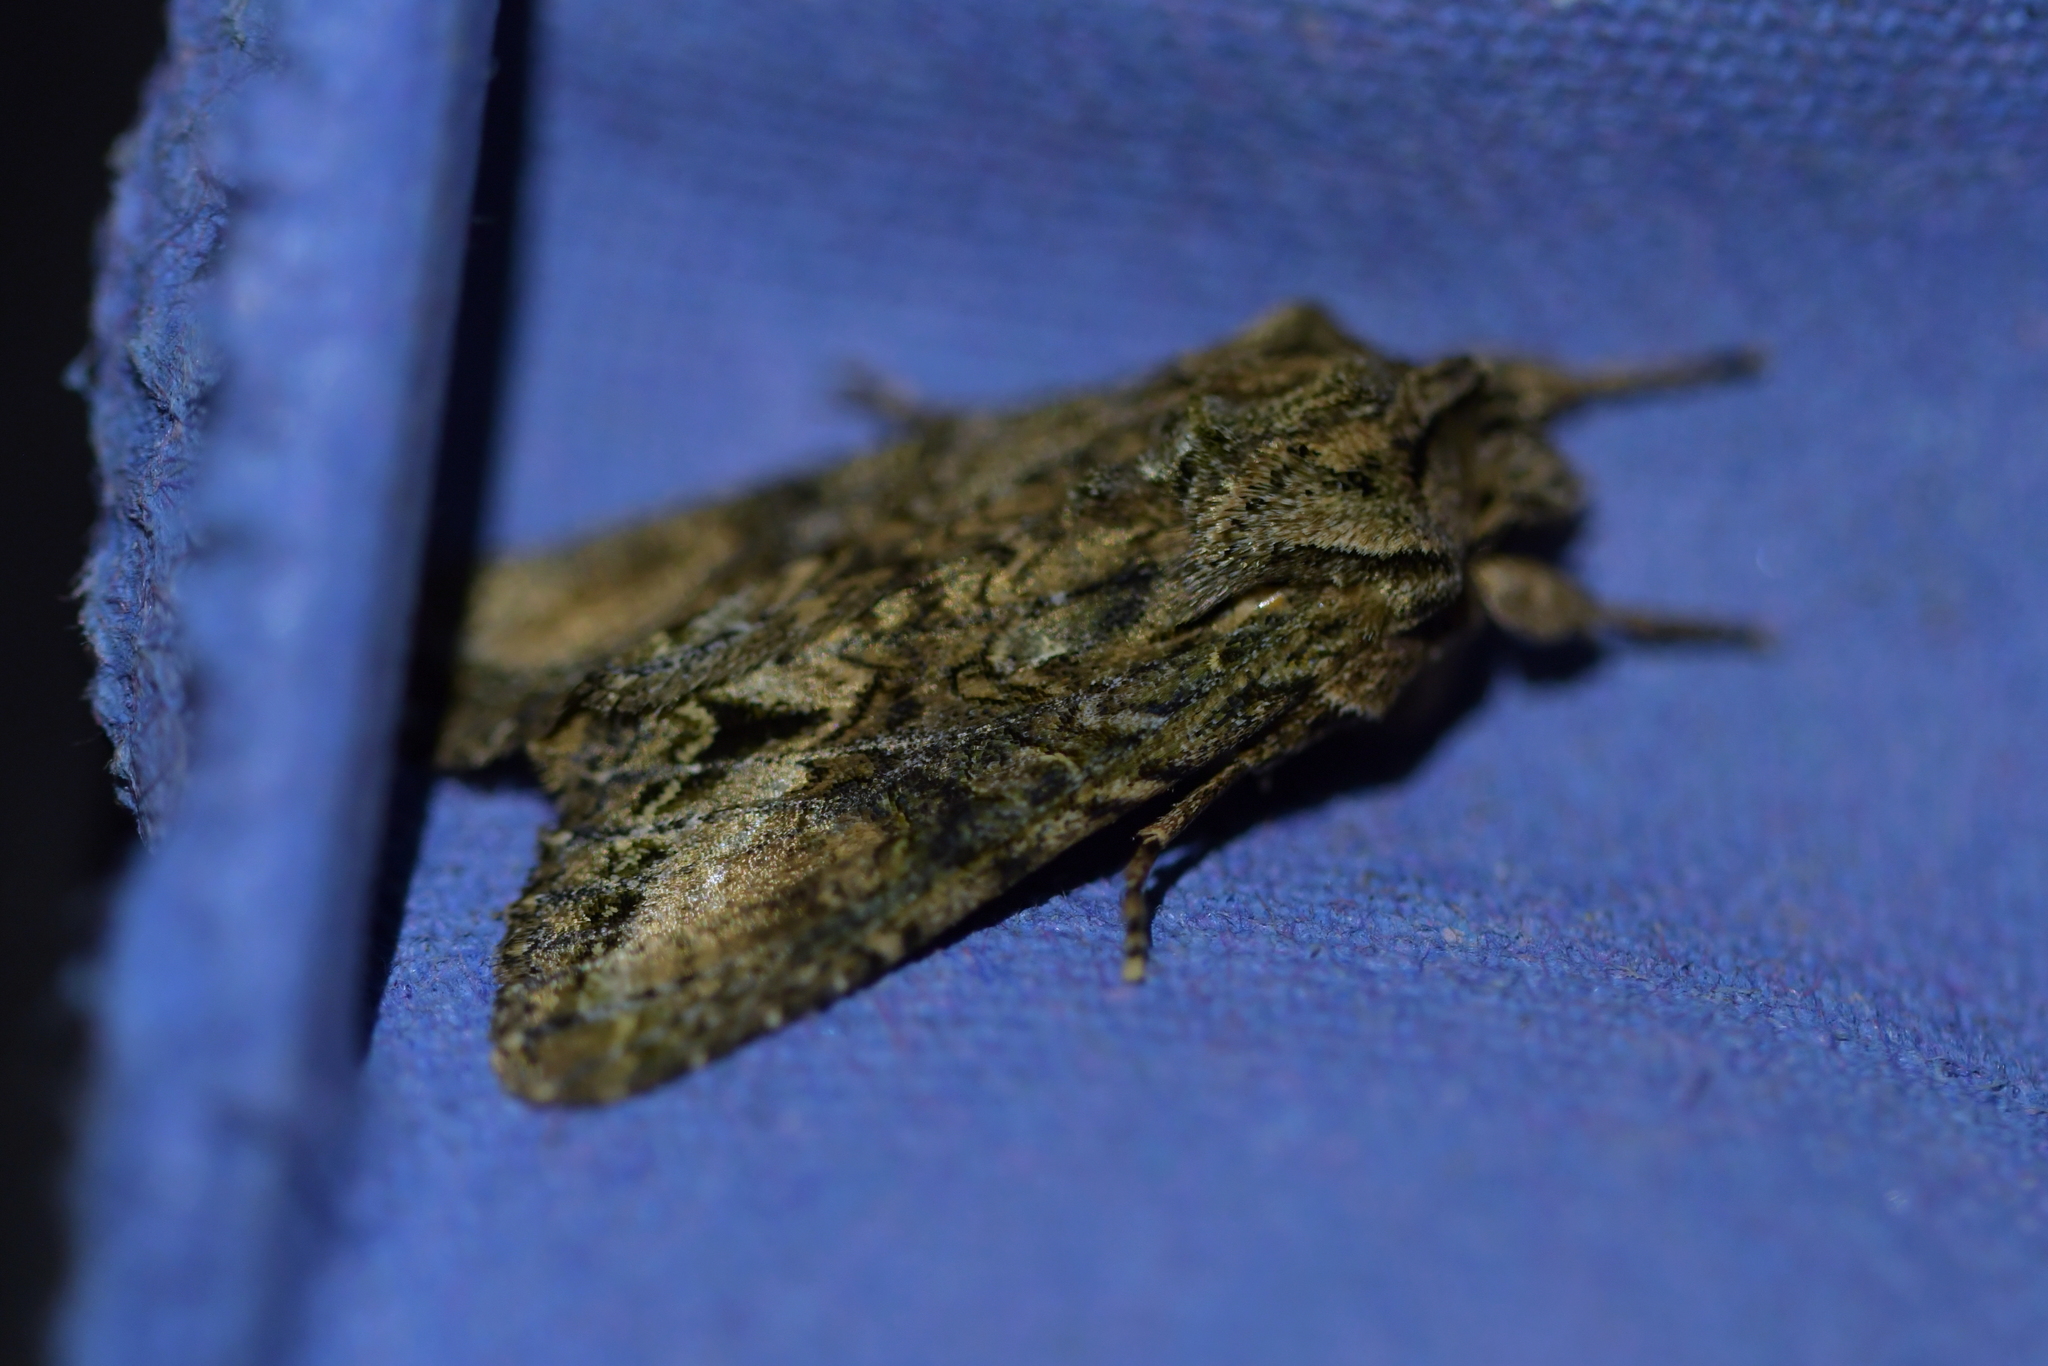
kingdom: Animalia
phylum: Arthropoda
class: Insecta
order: Lepidoptera
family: Noctuidae
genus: Ichneutica
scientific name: Ichneutica mutans
